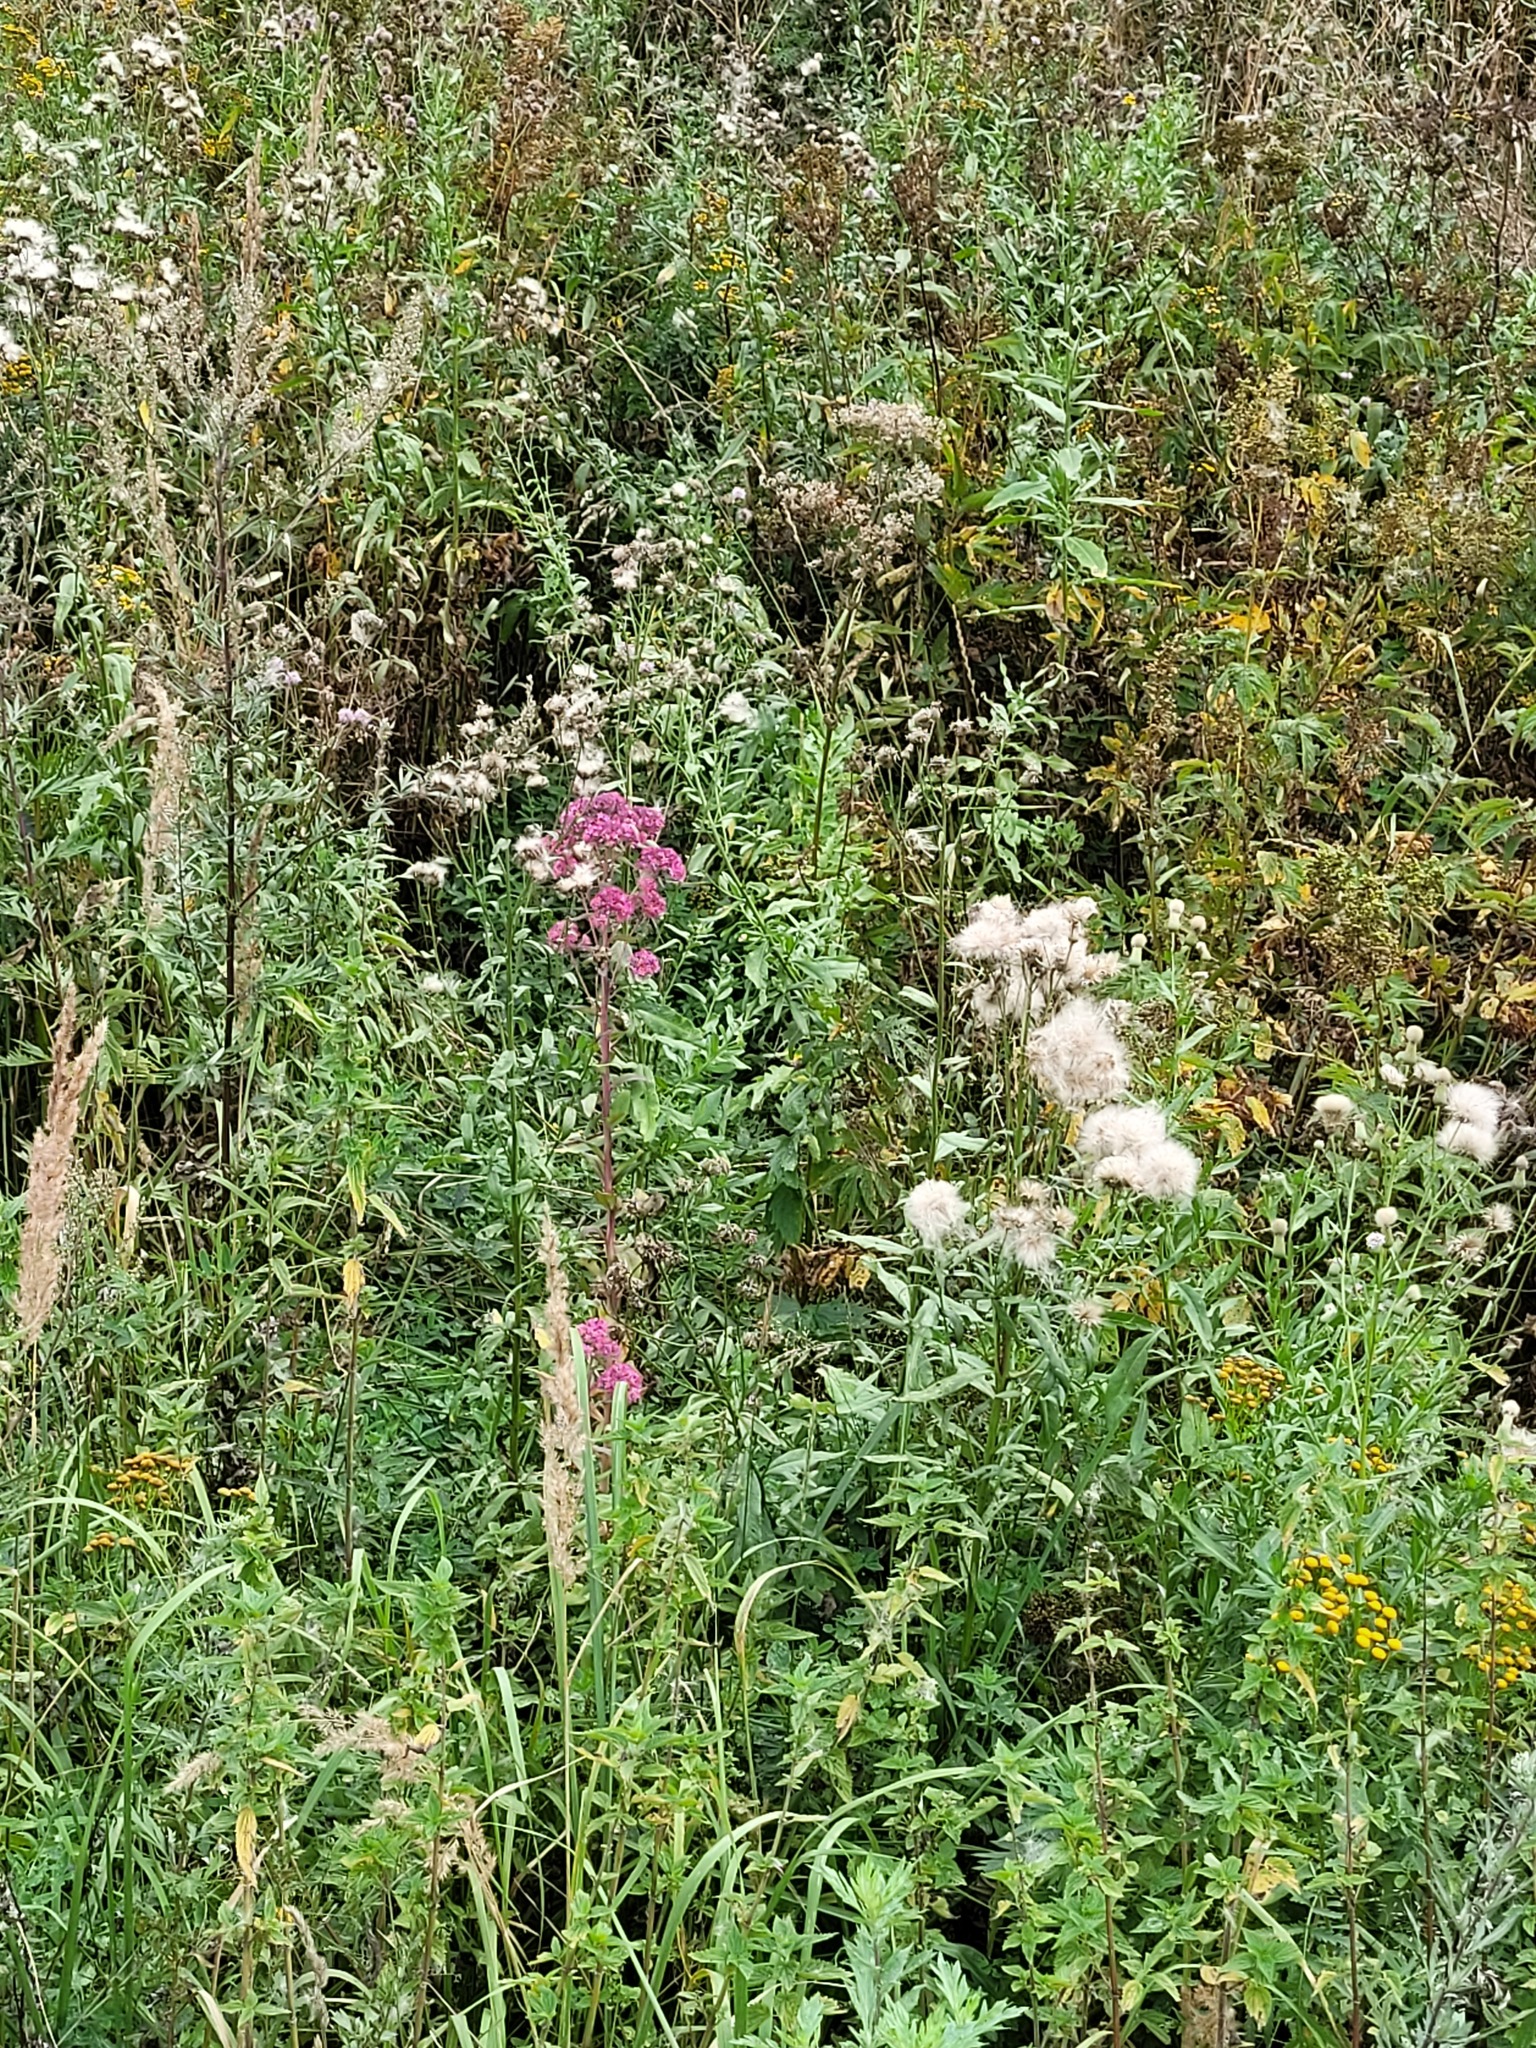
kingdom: Plantae
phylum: Tracheophyta
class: Magnoliopsida
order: Saxifragales
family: Crassulaceae
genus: Hylotelephium
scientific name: Hylotelephium telephium
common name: Live-forever
